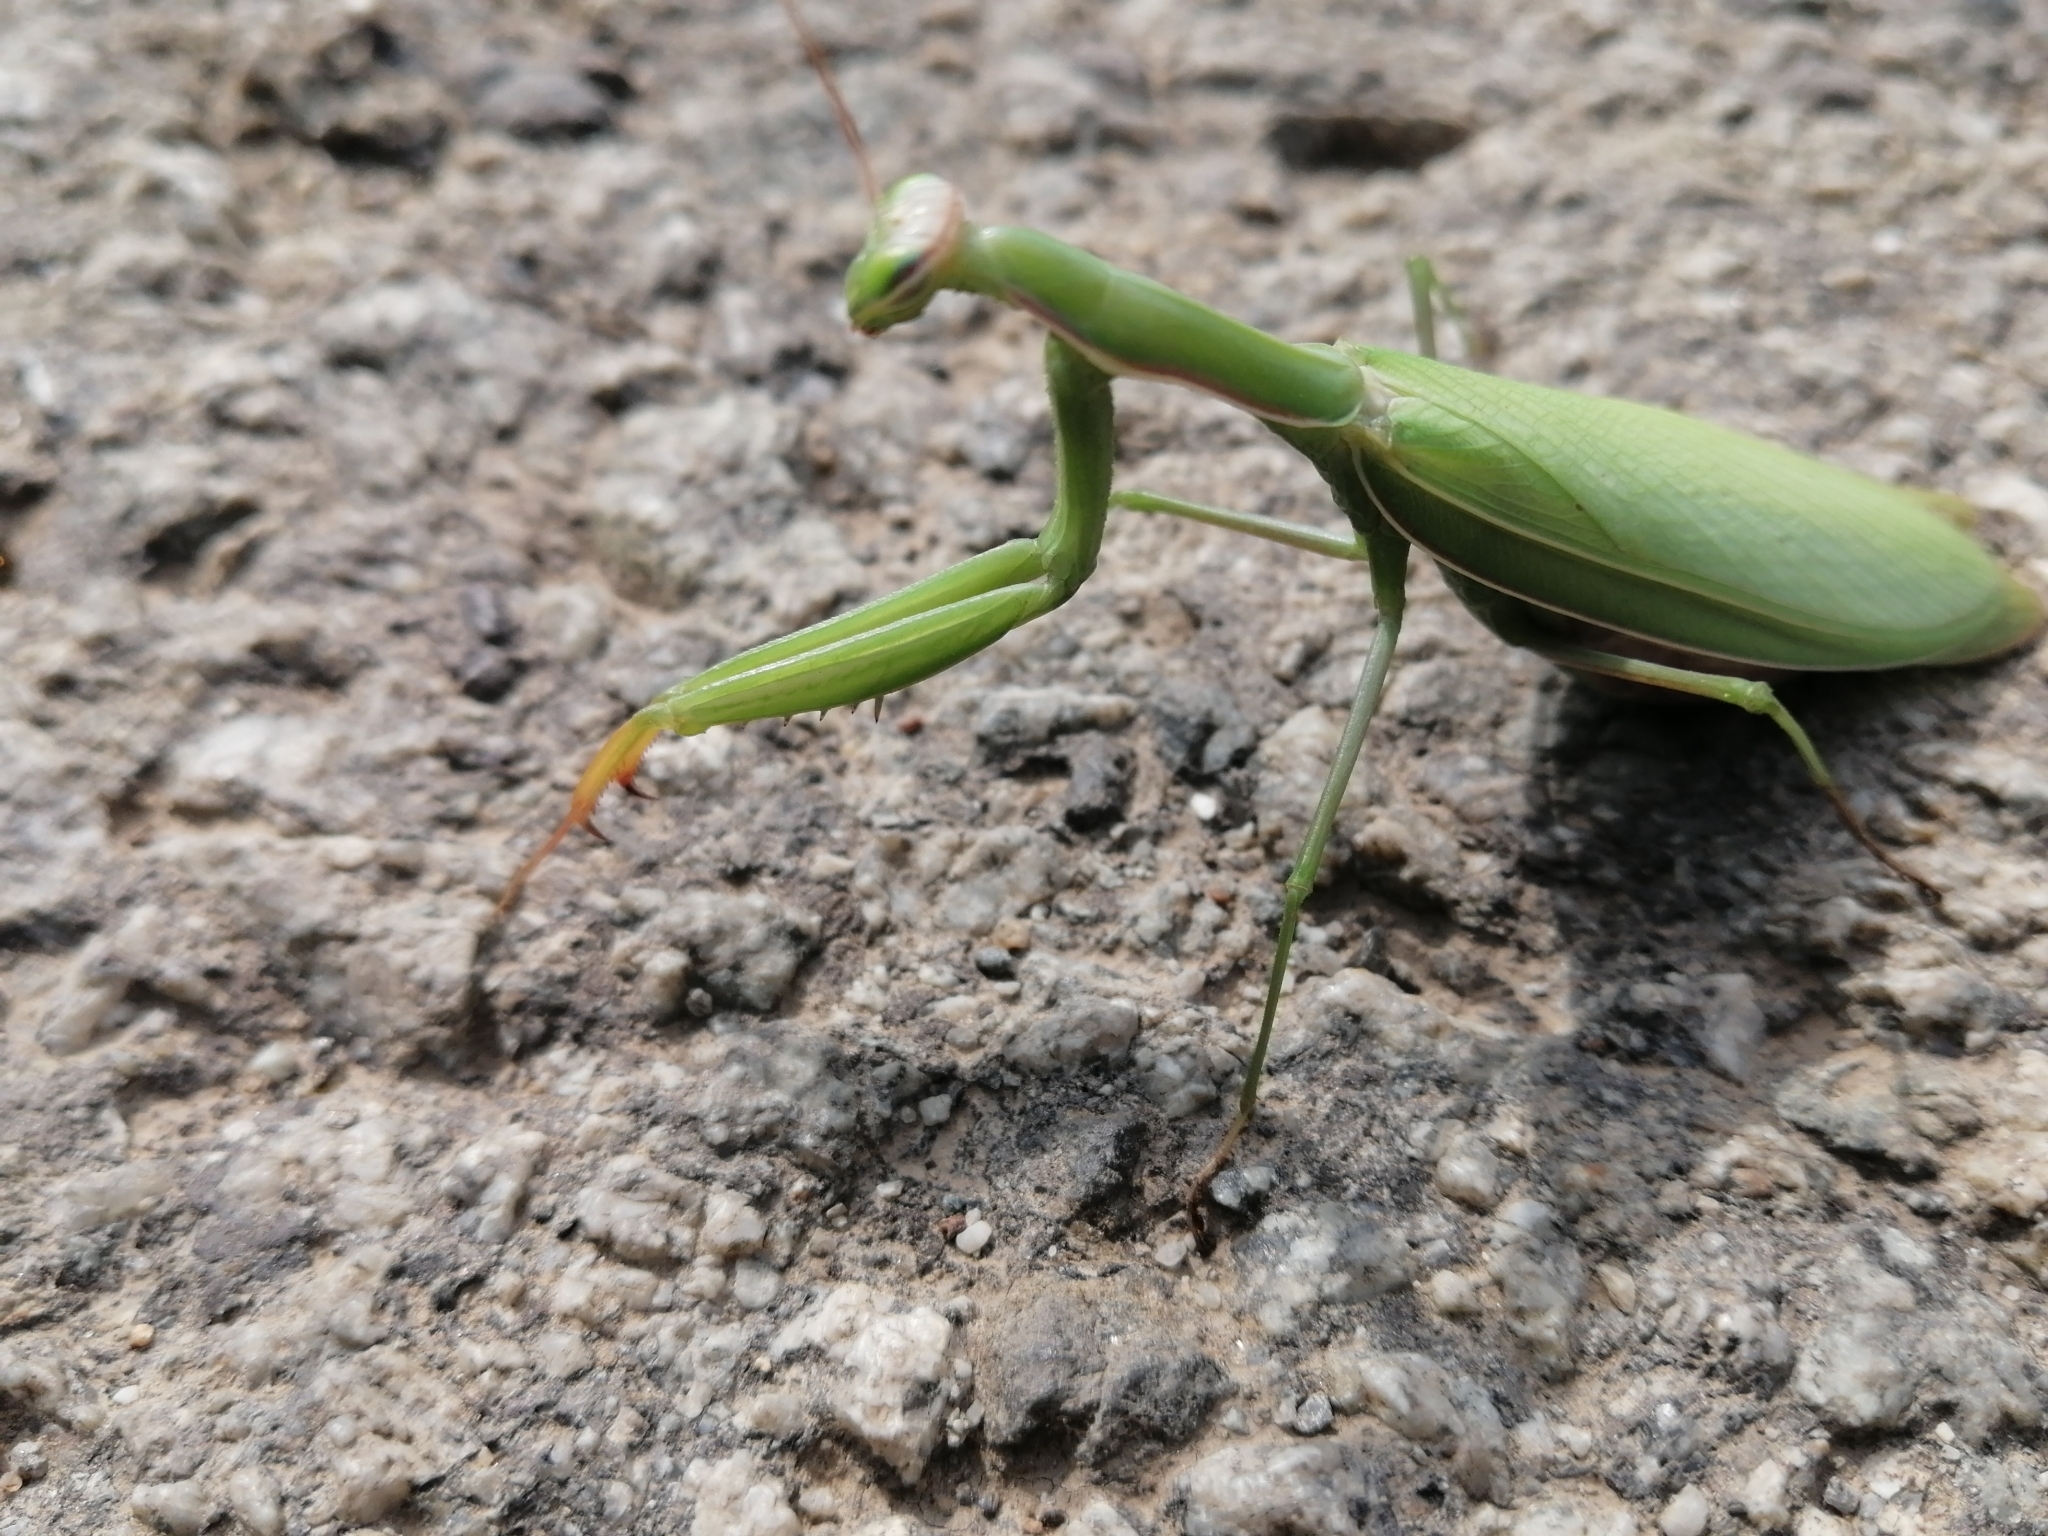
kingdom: Animalia
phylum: Arthropoda
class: Insecta
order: Mantodea
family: Mantidae
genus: Mantis
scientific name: Mantis religiosa
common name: Praying mantis
